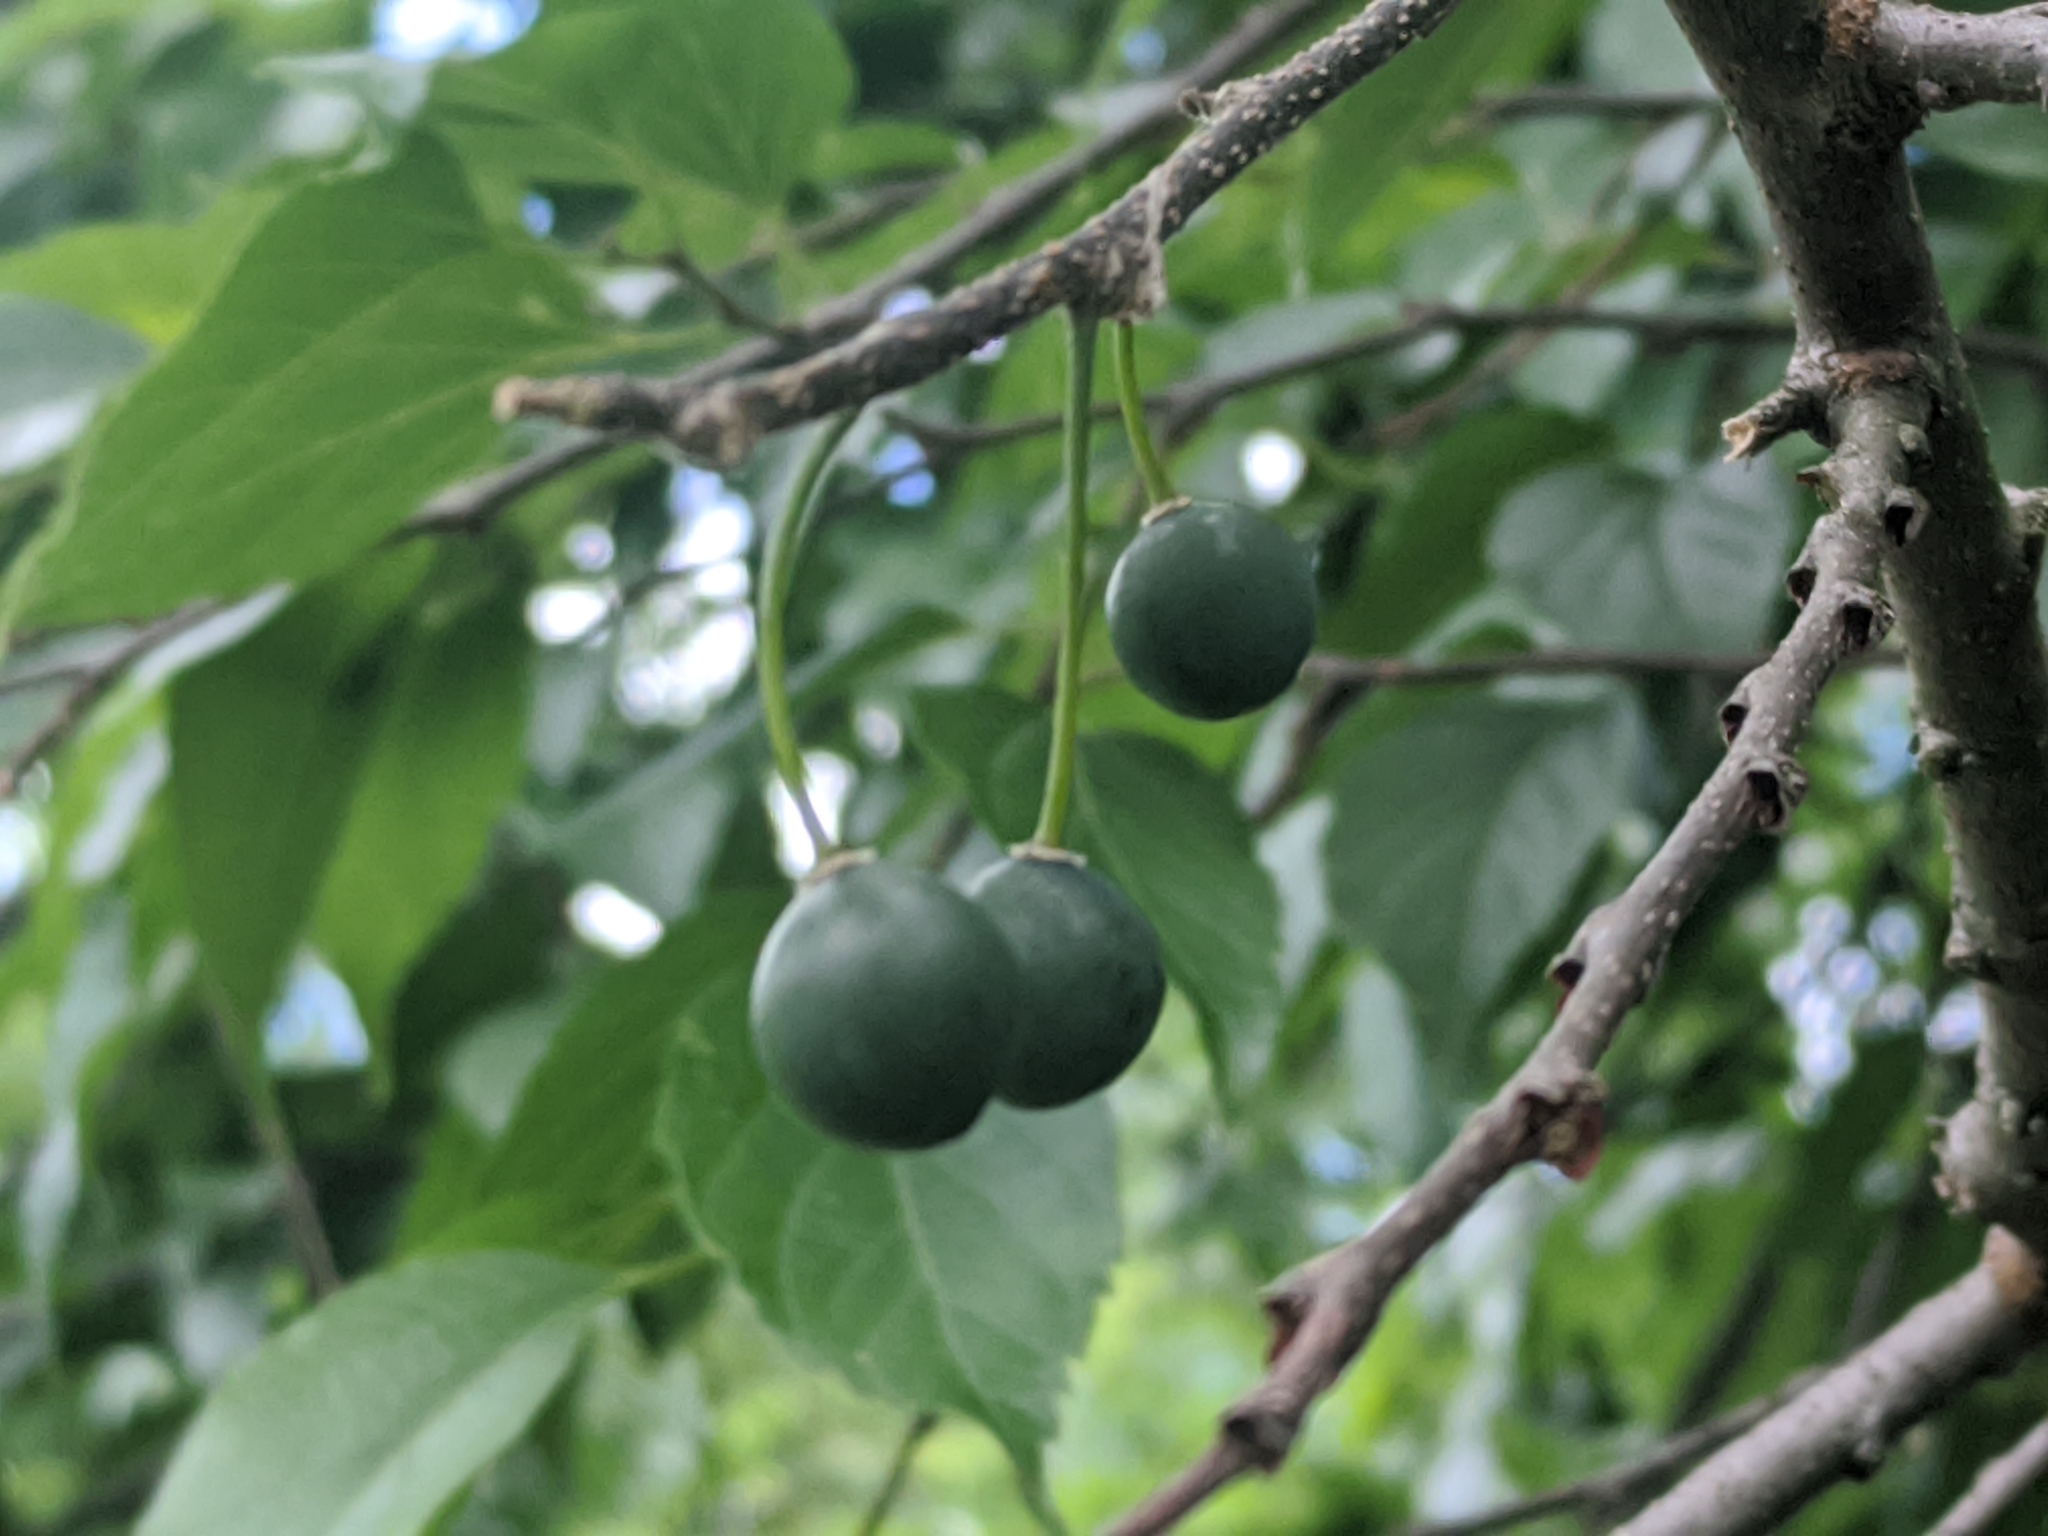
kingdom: Plantae
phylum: Tracheophyta
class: Magnoliopsida
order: Rosales
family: Cannabaceae
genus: Celtis
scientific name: Celtis occidentalis
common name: Common hackberry
